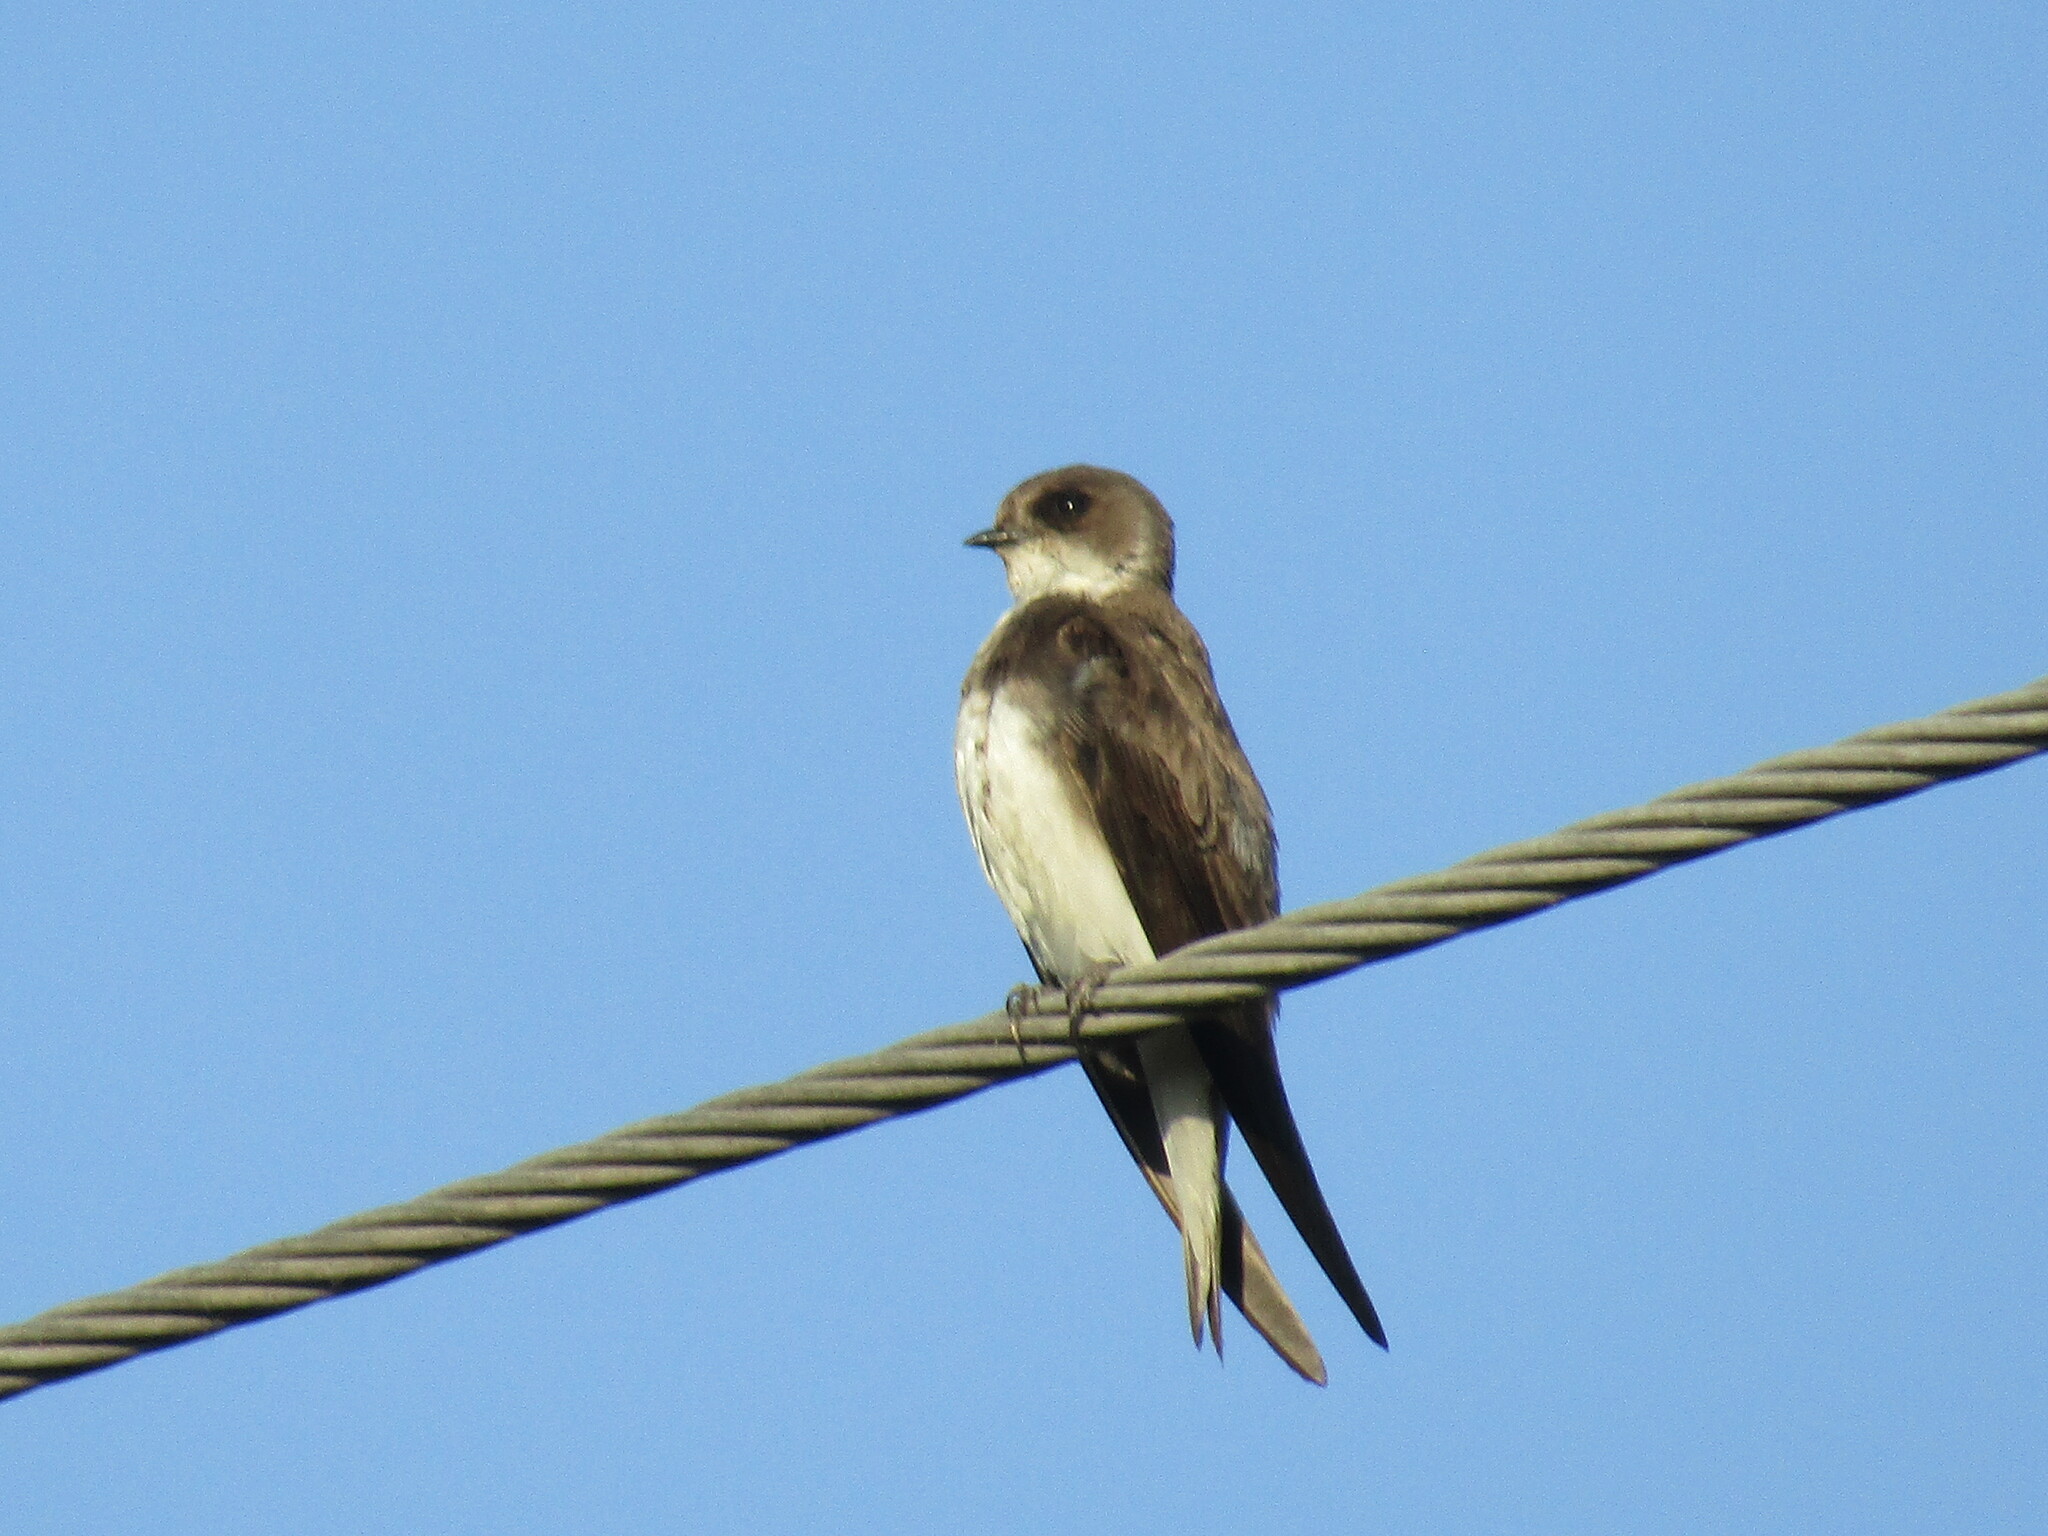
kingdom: Animalia
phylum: Chordata
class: Aves
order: Passeriformes
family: Hirundinidae
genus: Riparia
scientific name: Riparia riparia
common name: Sand martin
